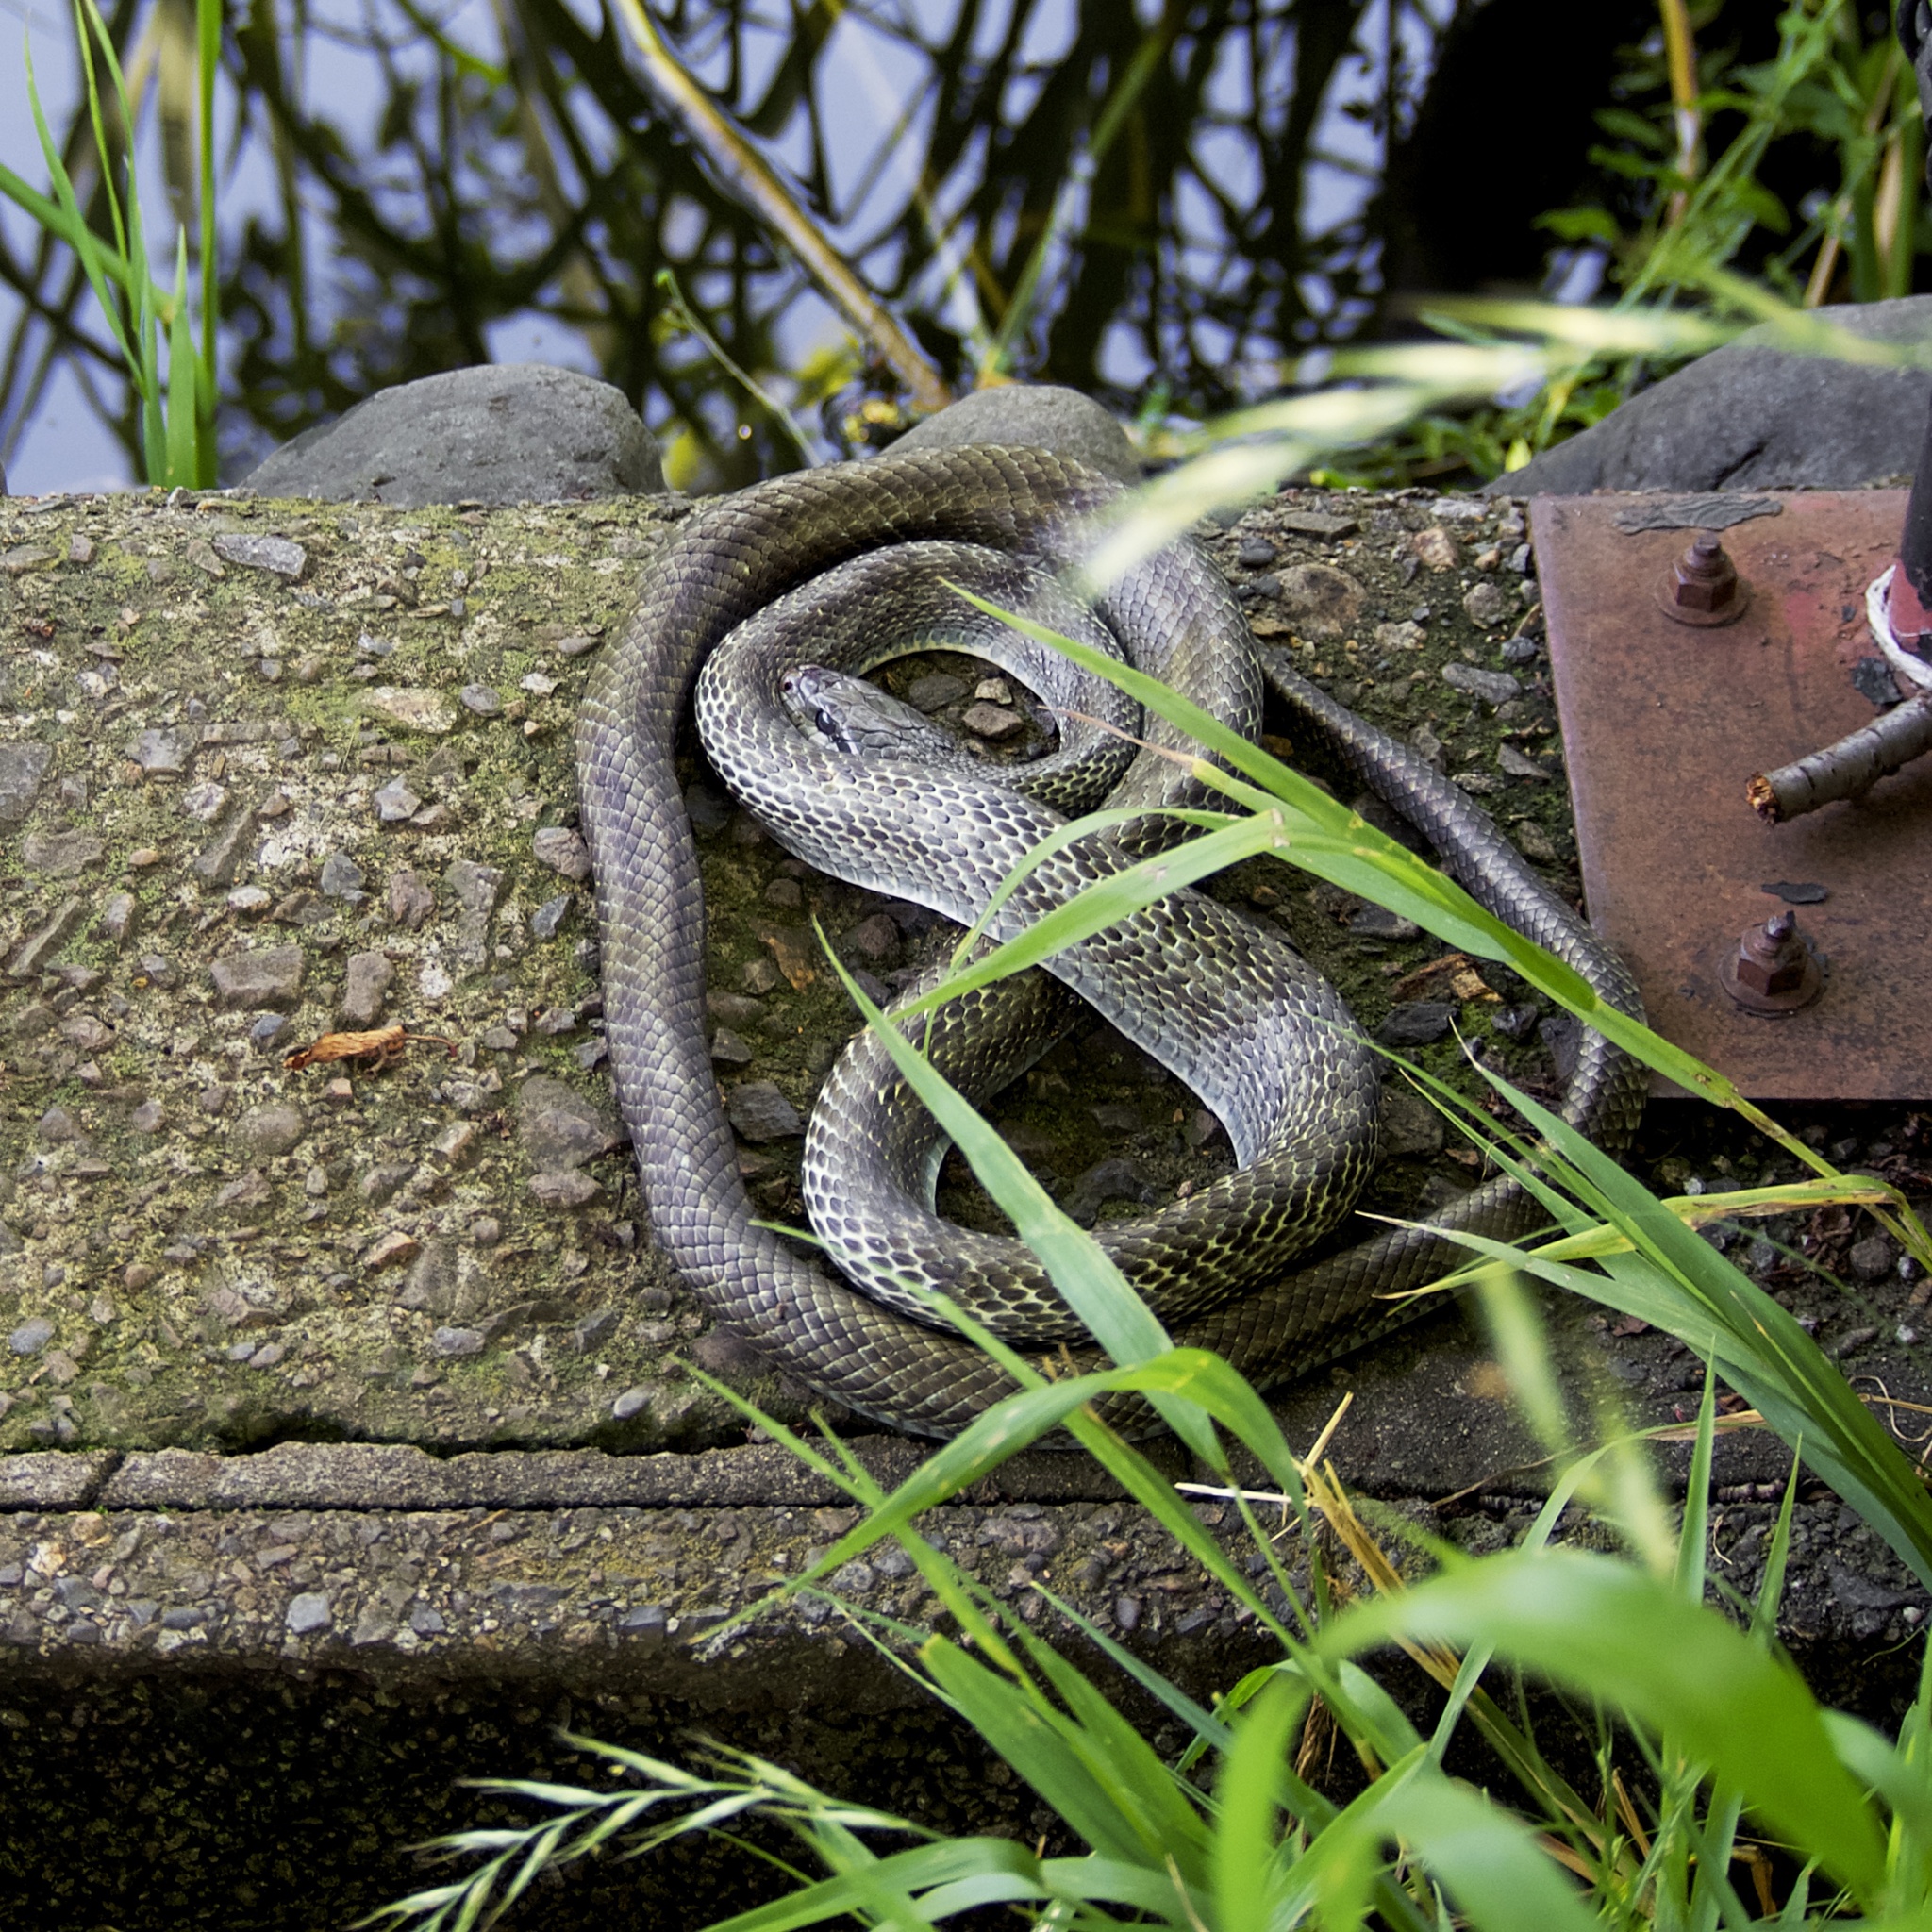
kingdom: Animalia
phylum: Chordata
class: Squamata
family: Colubridae
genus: Elaphe
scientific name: Elaphe climacophora
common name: Japanese ratsnake
